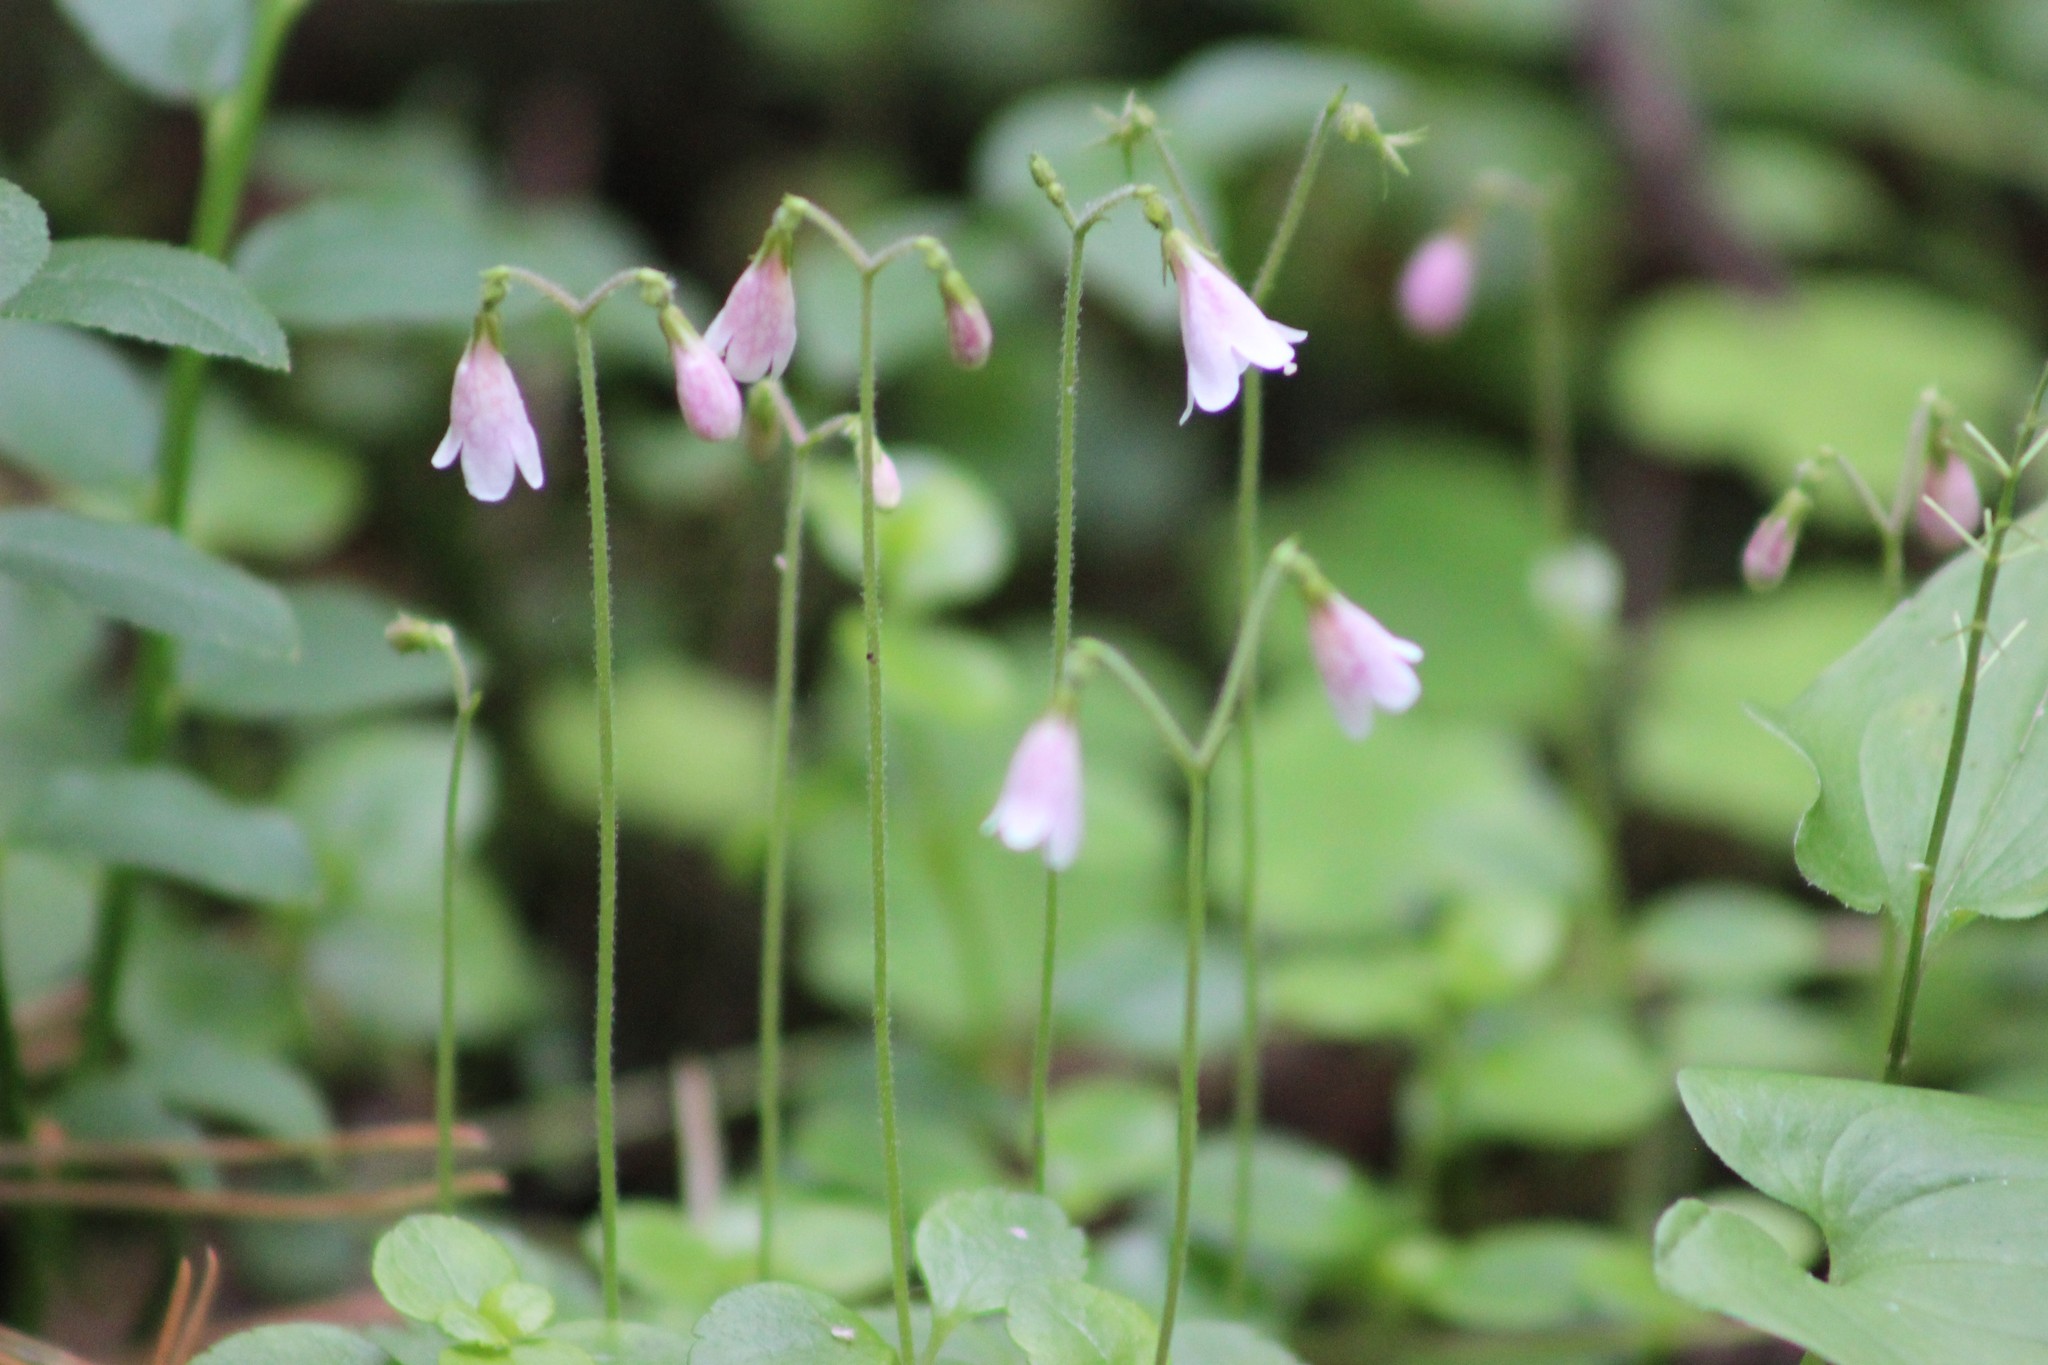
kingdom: Plantae
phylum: Tracheophyta
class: Magnoliopsida
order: Dipsacales
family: Caprifoliaceae
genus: Linnaea
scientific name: Linnaea borealis
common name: Twinflower
